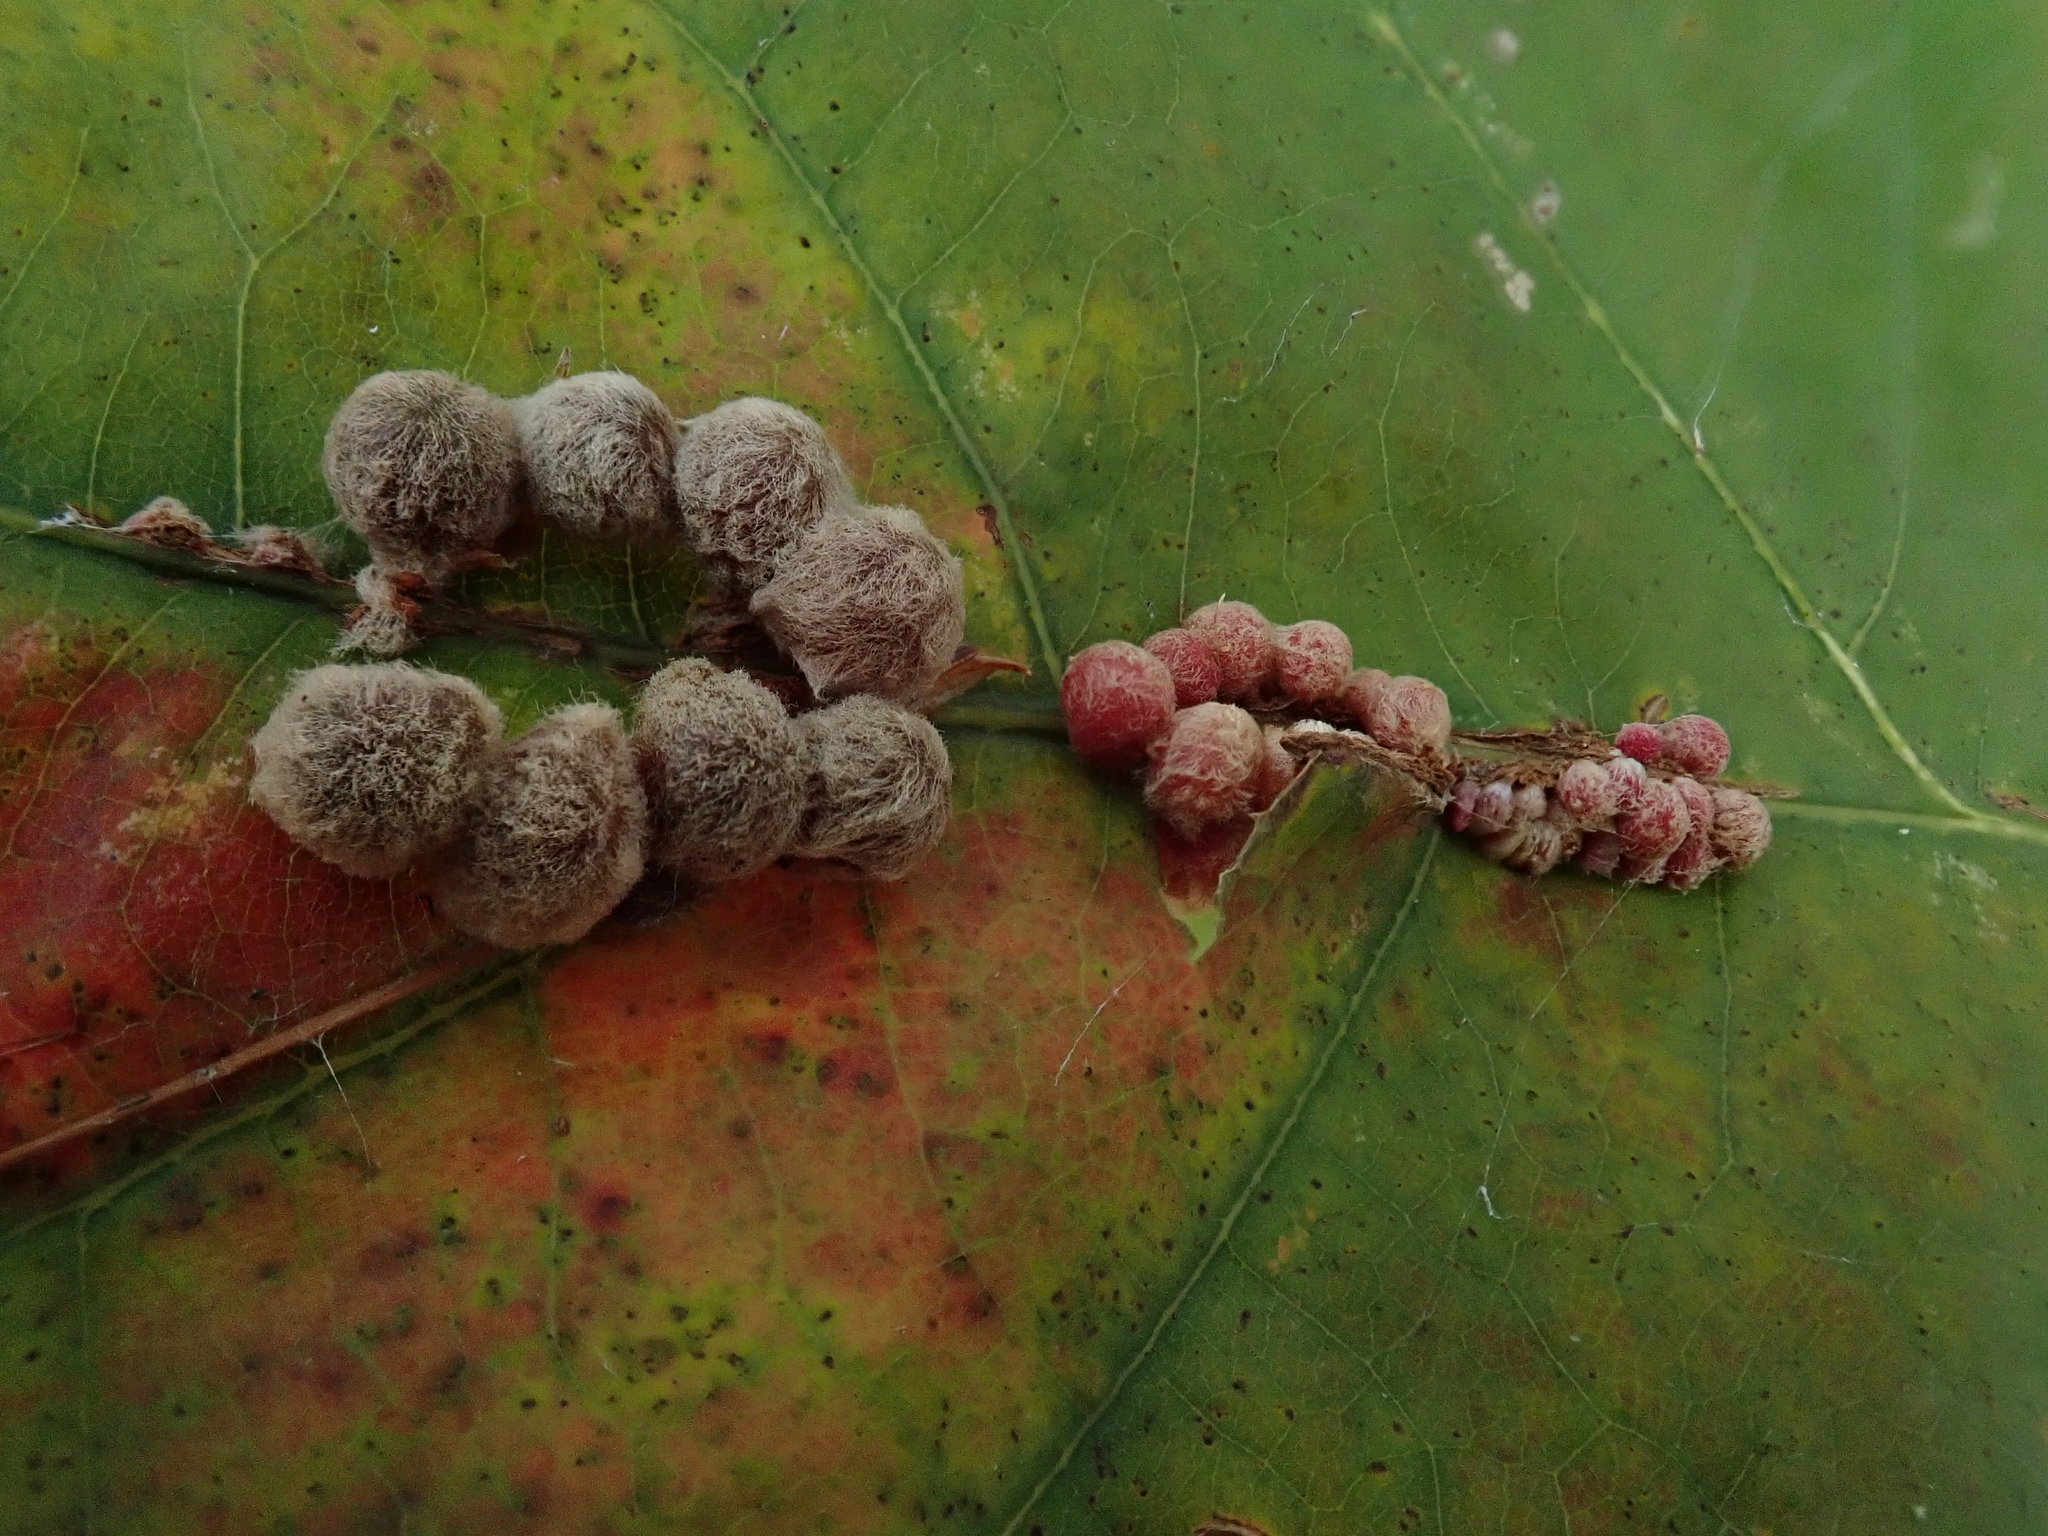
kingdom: Animalia
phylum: Arthropoda
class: Insecta
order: Hymenoptera
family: Cynipidae
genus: Callirhytis
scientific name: Callirhytis
